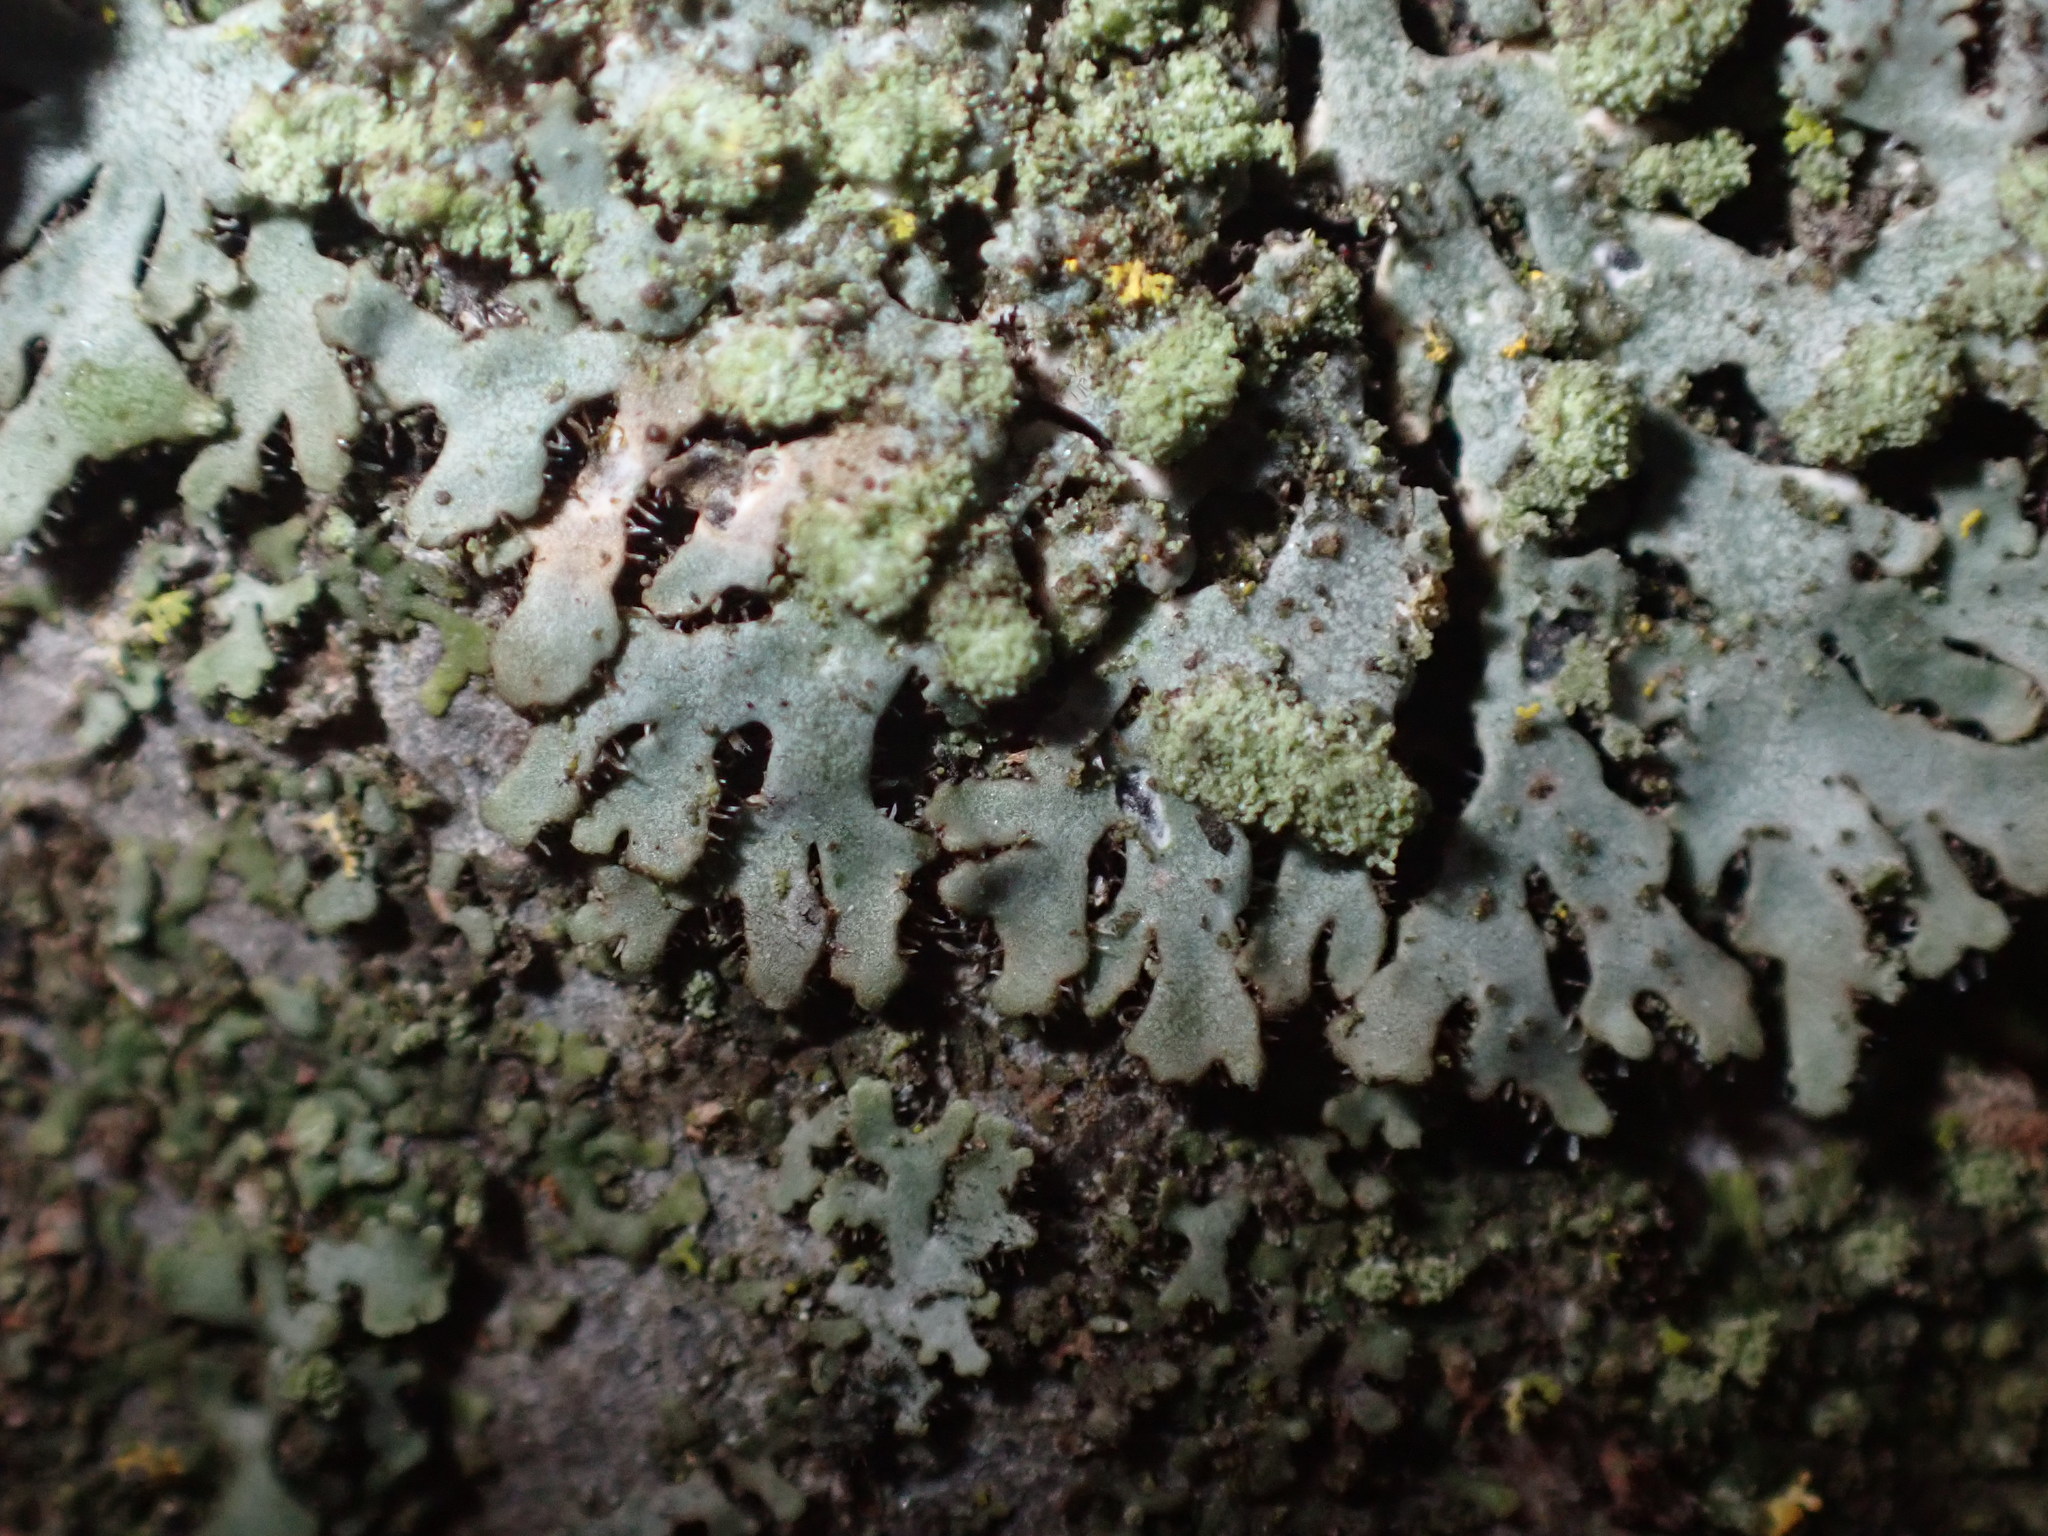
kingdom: Fungi
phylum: Ascomycota
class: Lecanoromycetes
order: Caliciales
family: Physciaceae
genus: Phaeophyscia
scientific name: Phaeophyscia orbicularis
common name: Mealy shadow lichen
